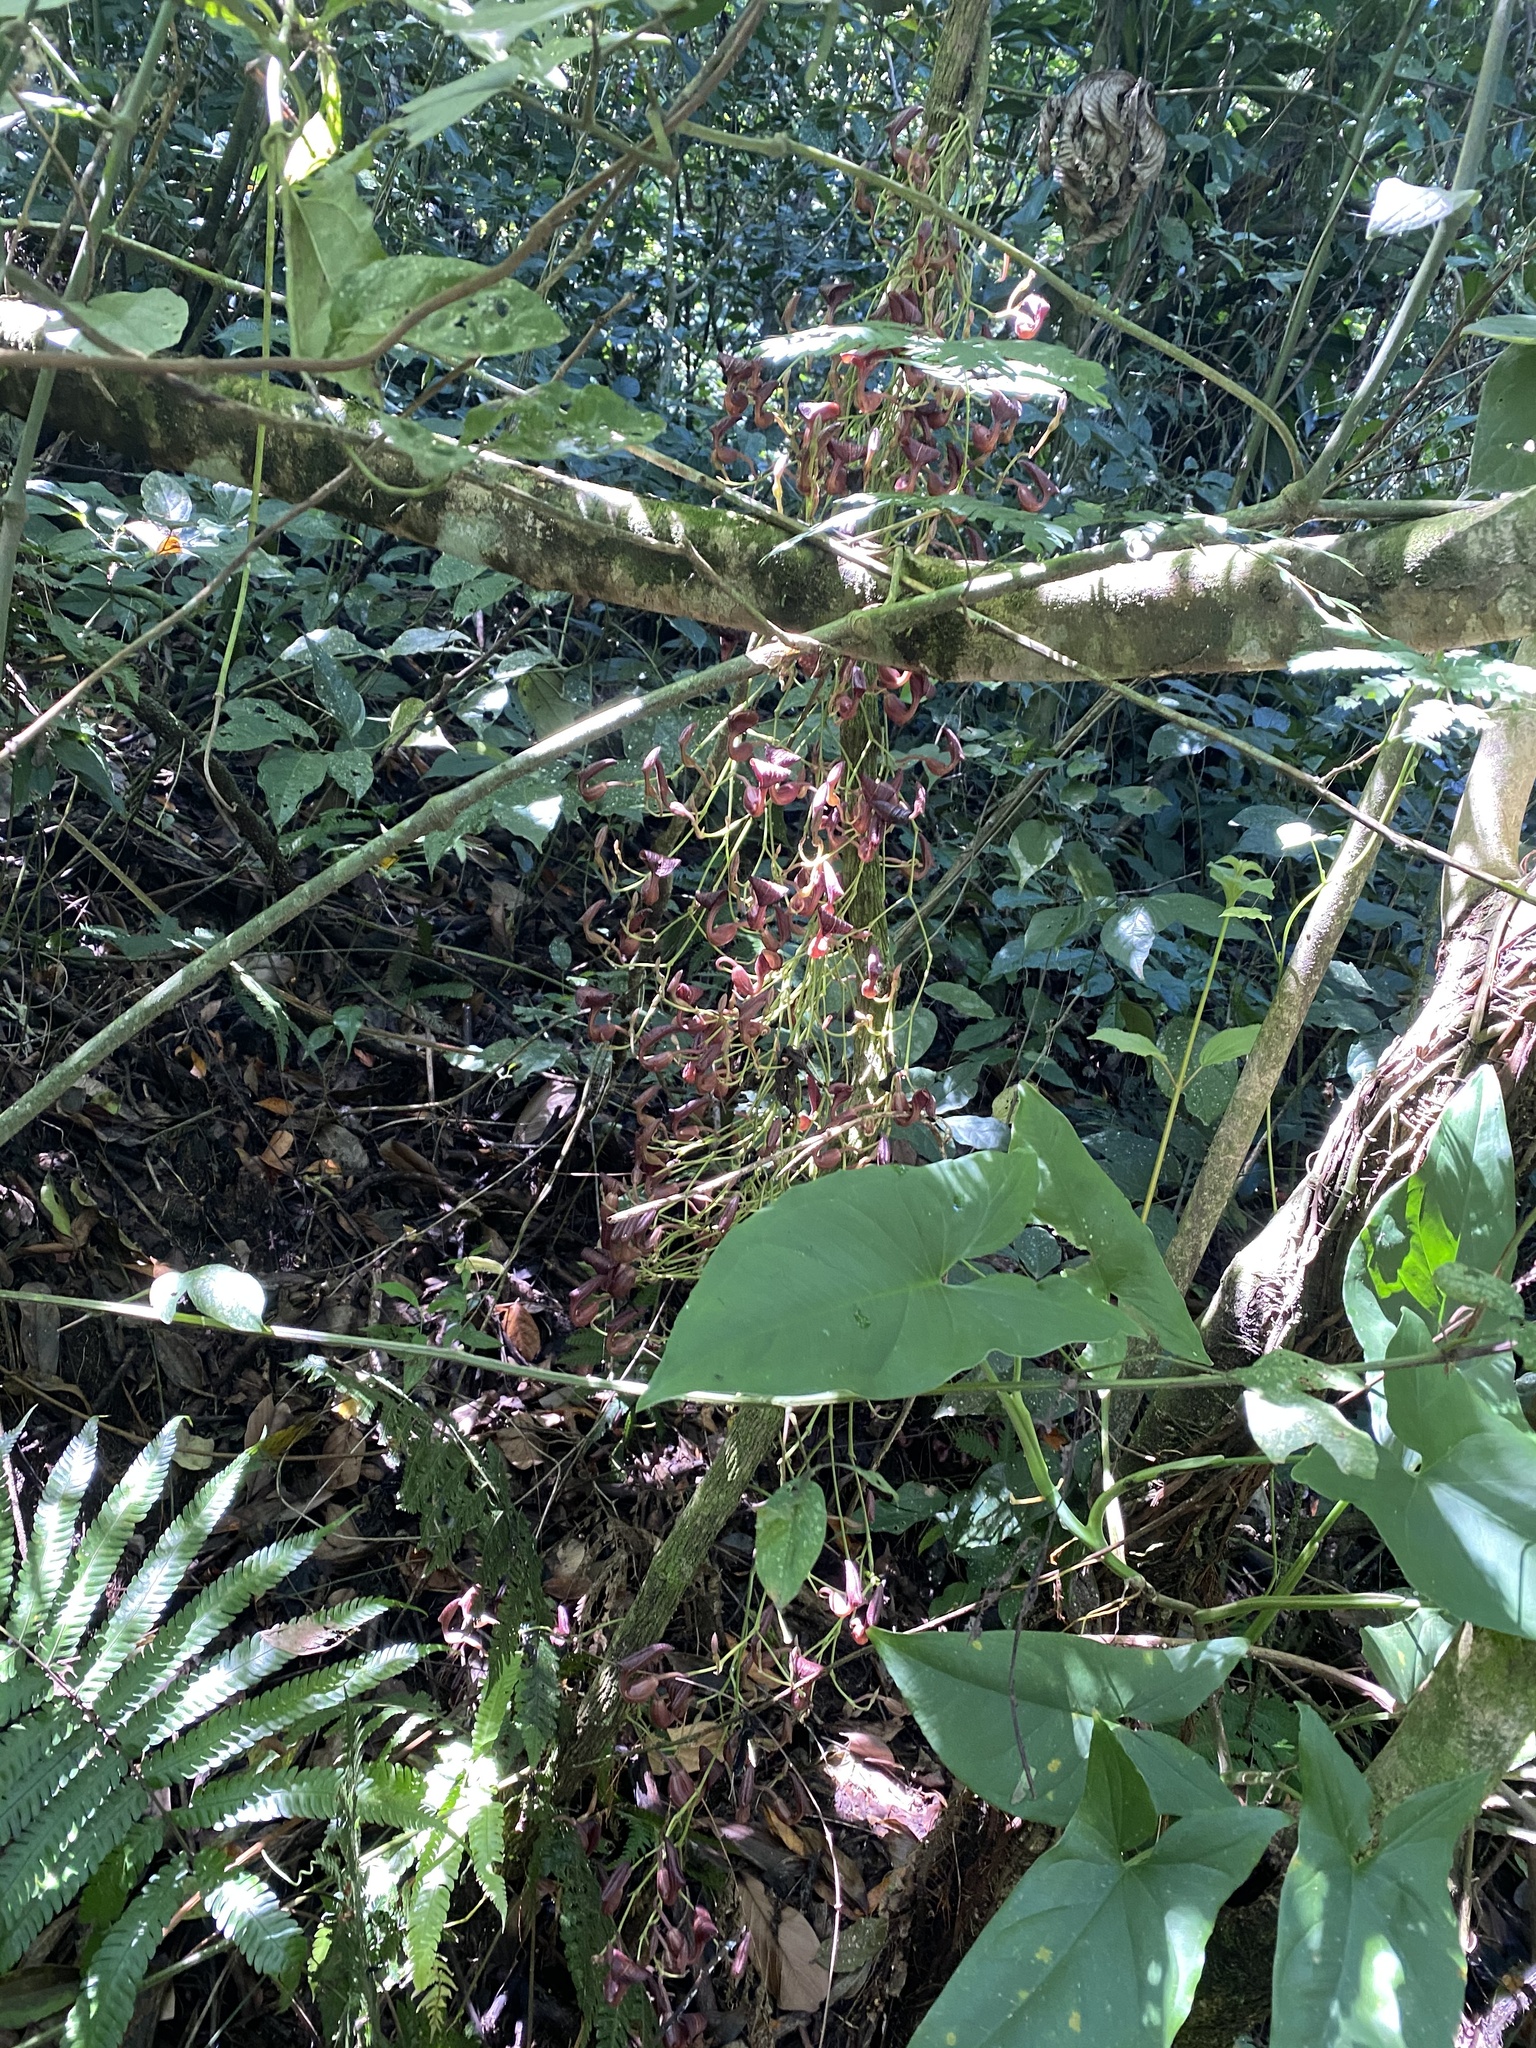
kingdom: Plantae
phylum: Tracheophyta
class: Magnoliopsida
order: Piperales
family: Aristolochiaceae
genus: Aristolochia
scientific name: Aristolochia maxima
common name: Florida dutchman's pipe
